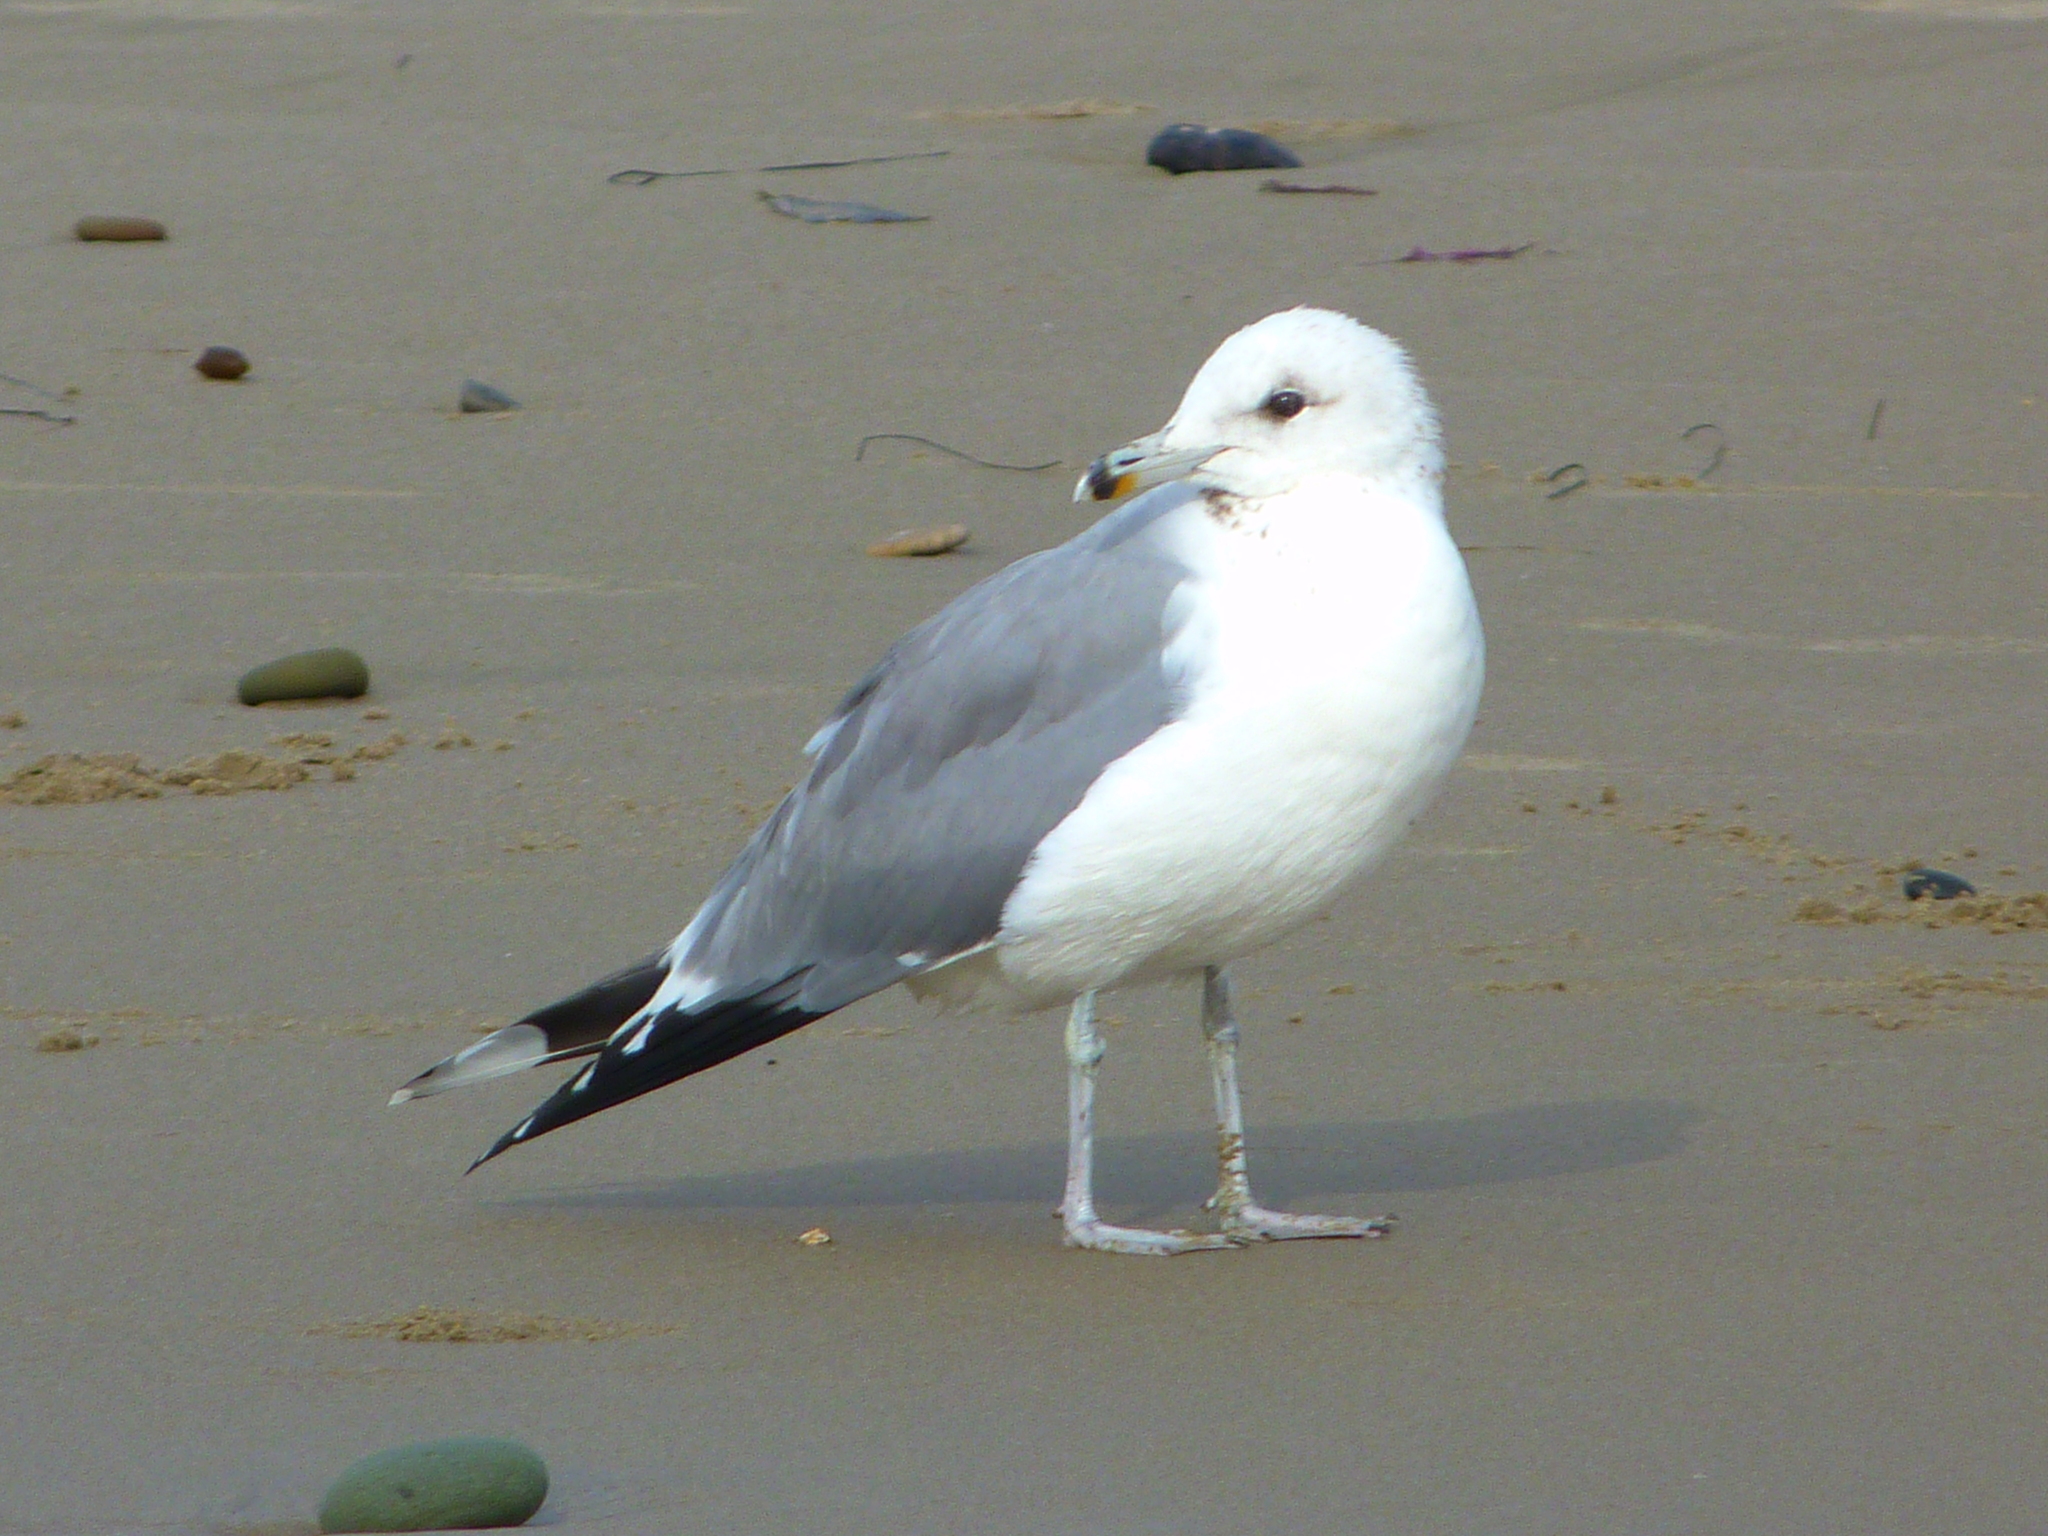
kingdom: Animalia
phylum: Chordata
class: Aves
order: Charadriiformes
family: Laridae
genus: Larus
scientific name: Larus californicus
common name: California gull
